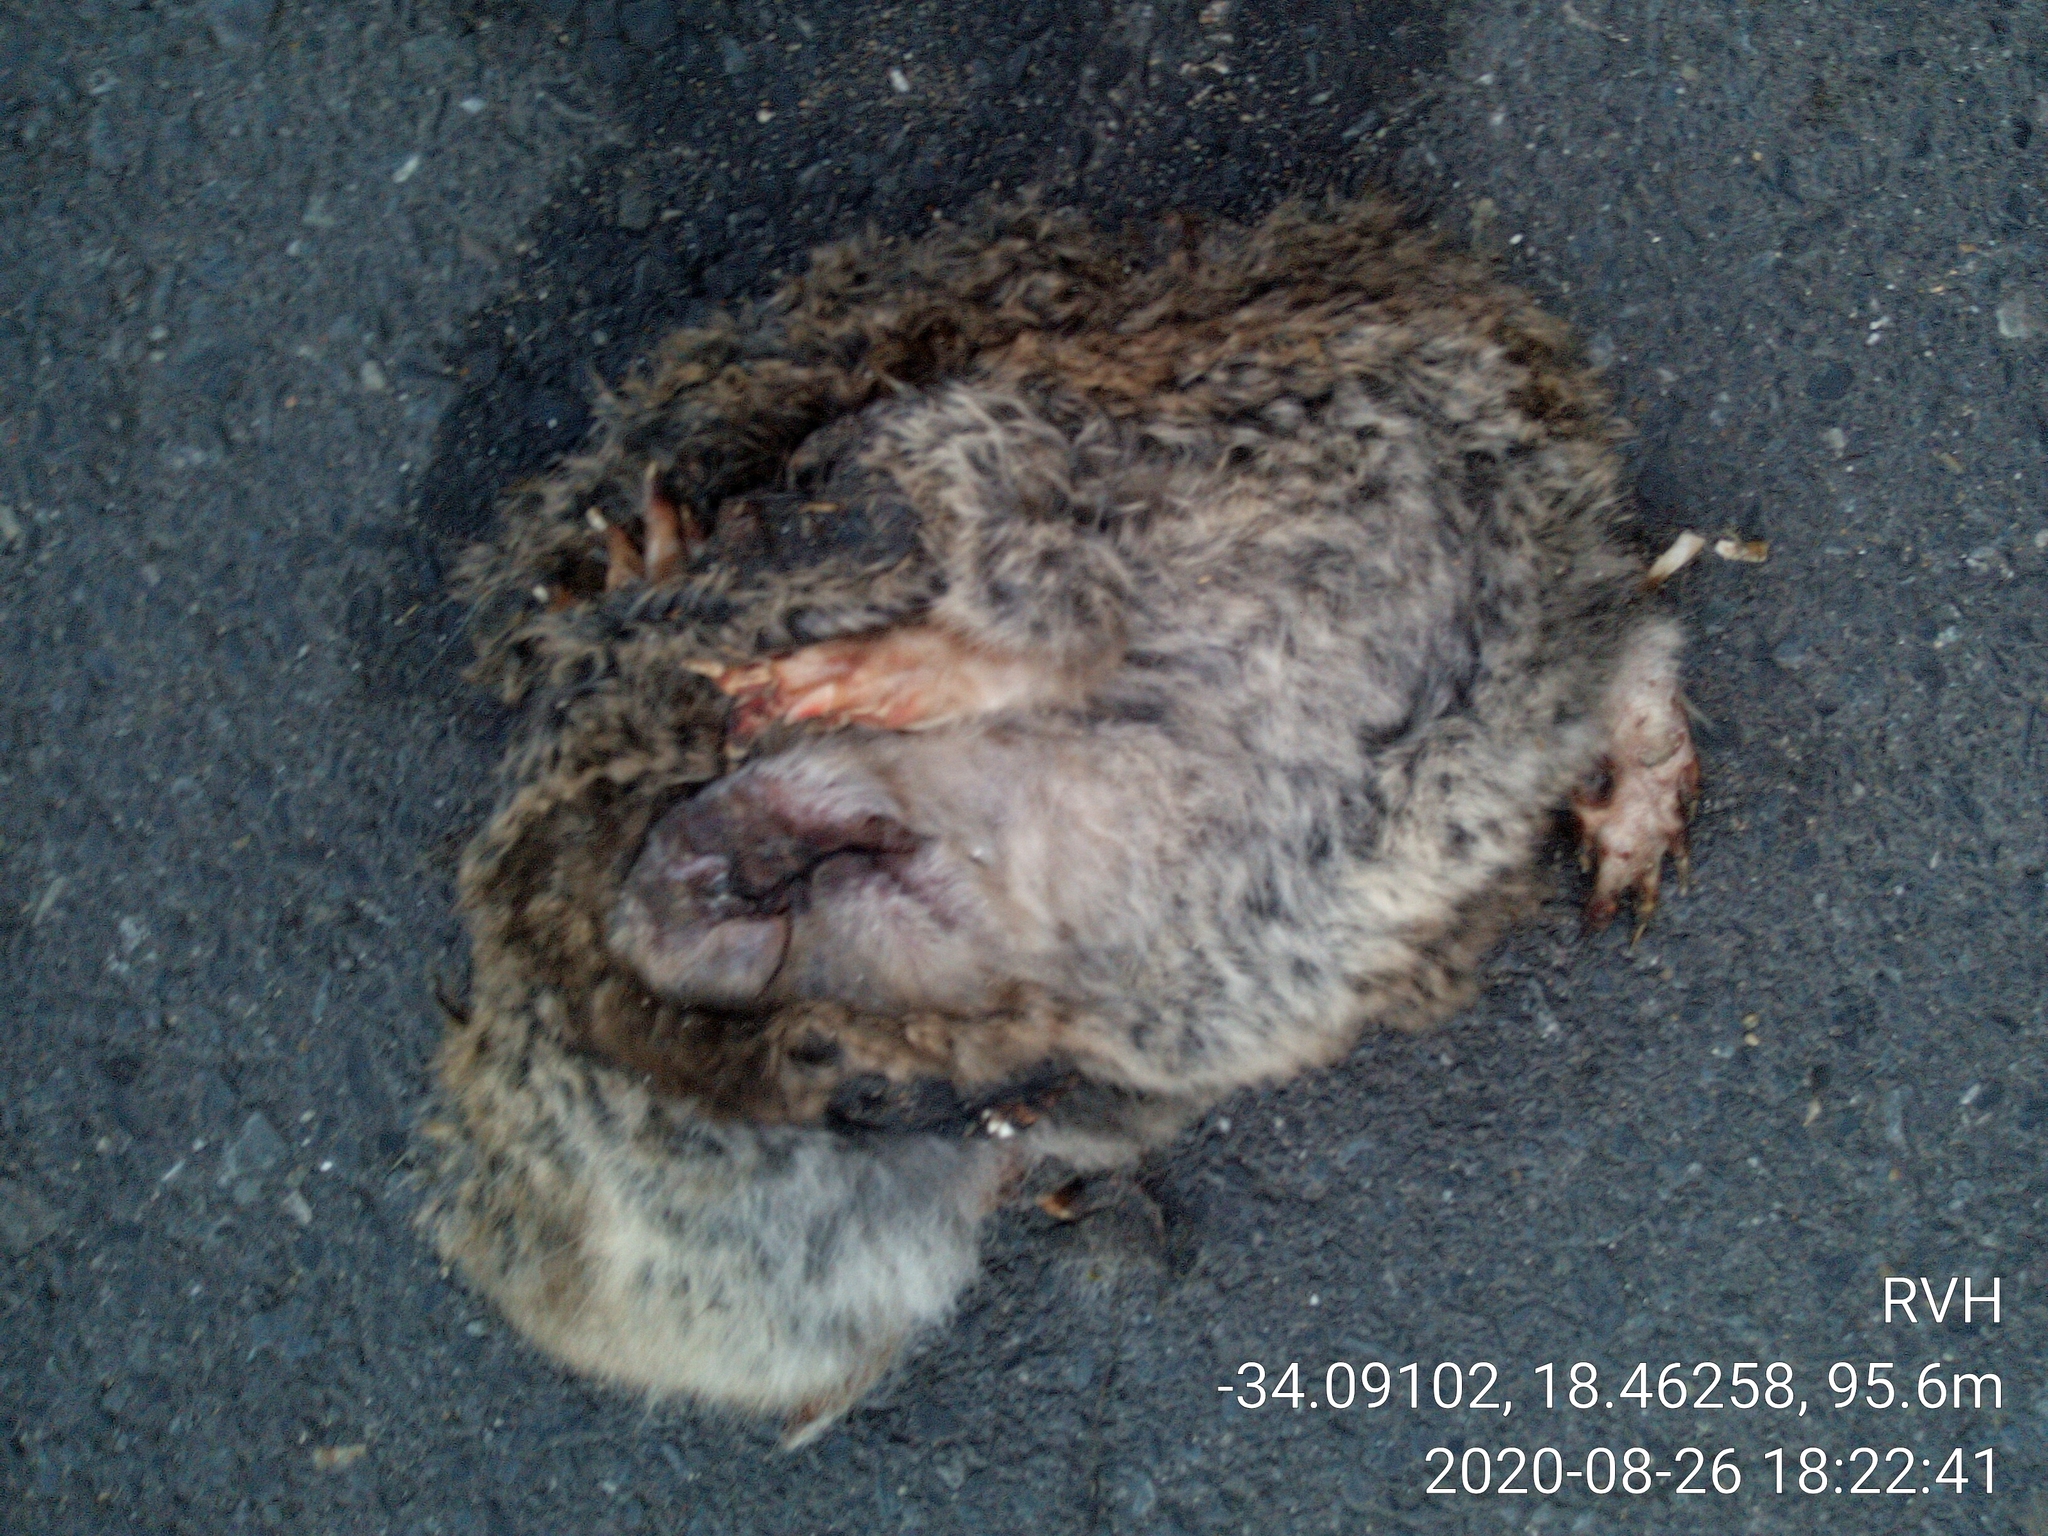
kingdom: Animalia
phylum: Chordata
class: Mammalia
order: Rodentia
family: Sciuridae
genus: Sciurus
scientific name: Sciurus carolinensis
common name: Eastern gray squirrel
